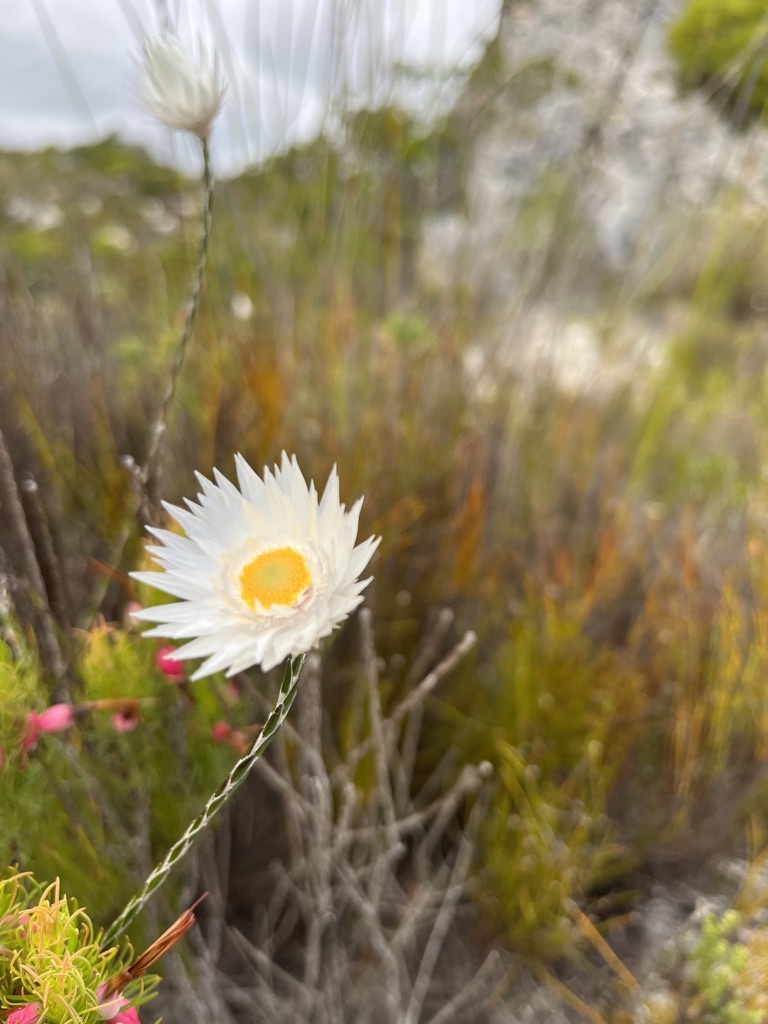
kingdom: Plantae
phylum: Tracheophyta
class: Magnoliopsida
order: Asterales
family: Asteraceae
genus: Edmondia
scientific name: Edmondia sesamoides
